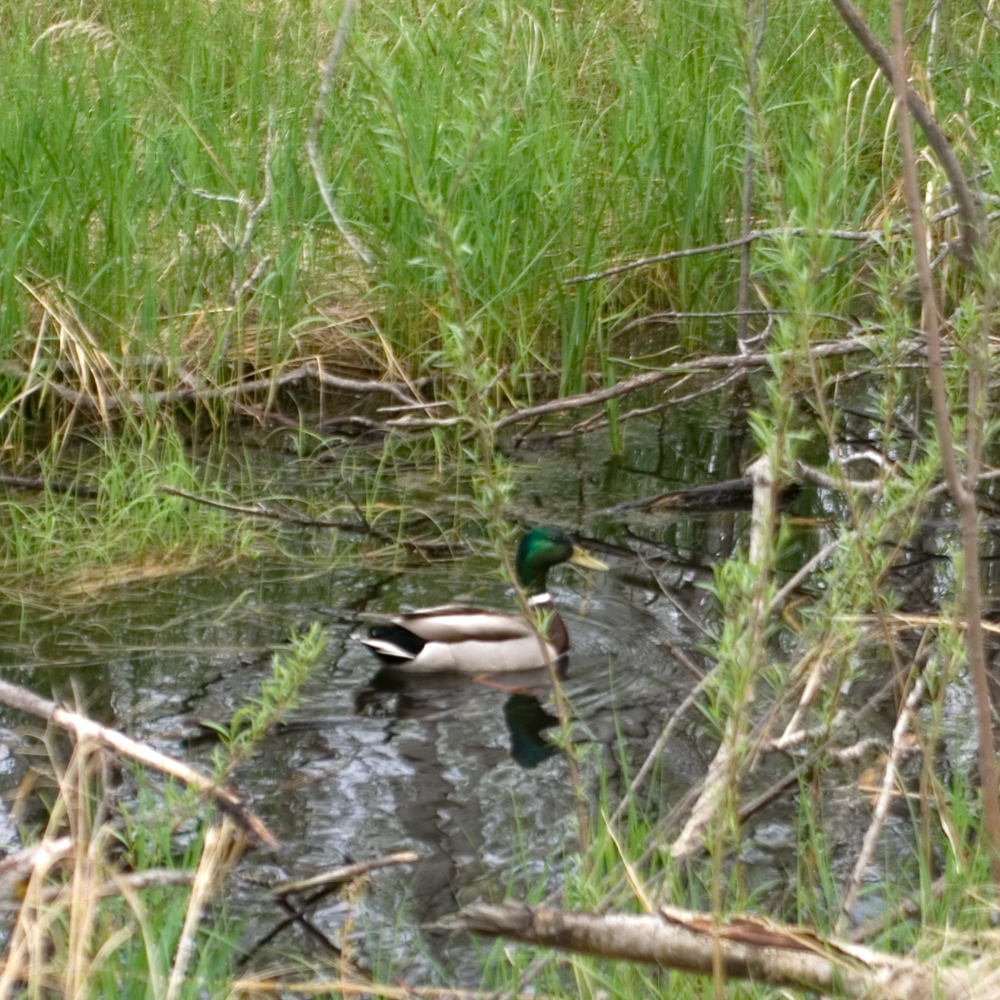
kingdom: Animalia
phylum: Chordata
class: Aves
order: Anseriformes
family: Anatidae
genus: Anas
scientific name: Anas platyrhynchos
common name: Mallard
